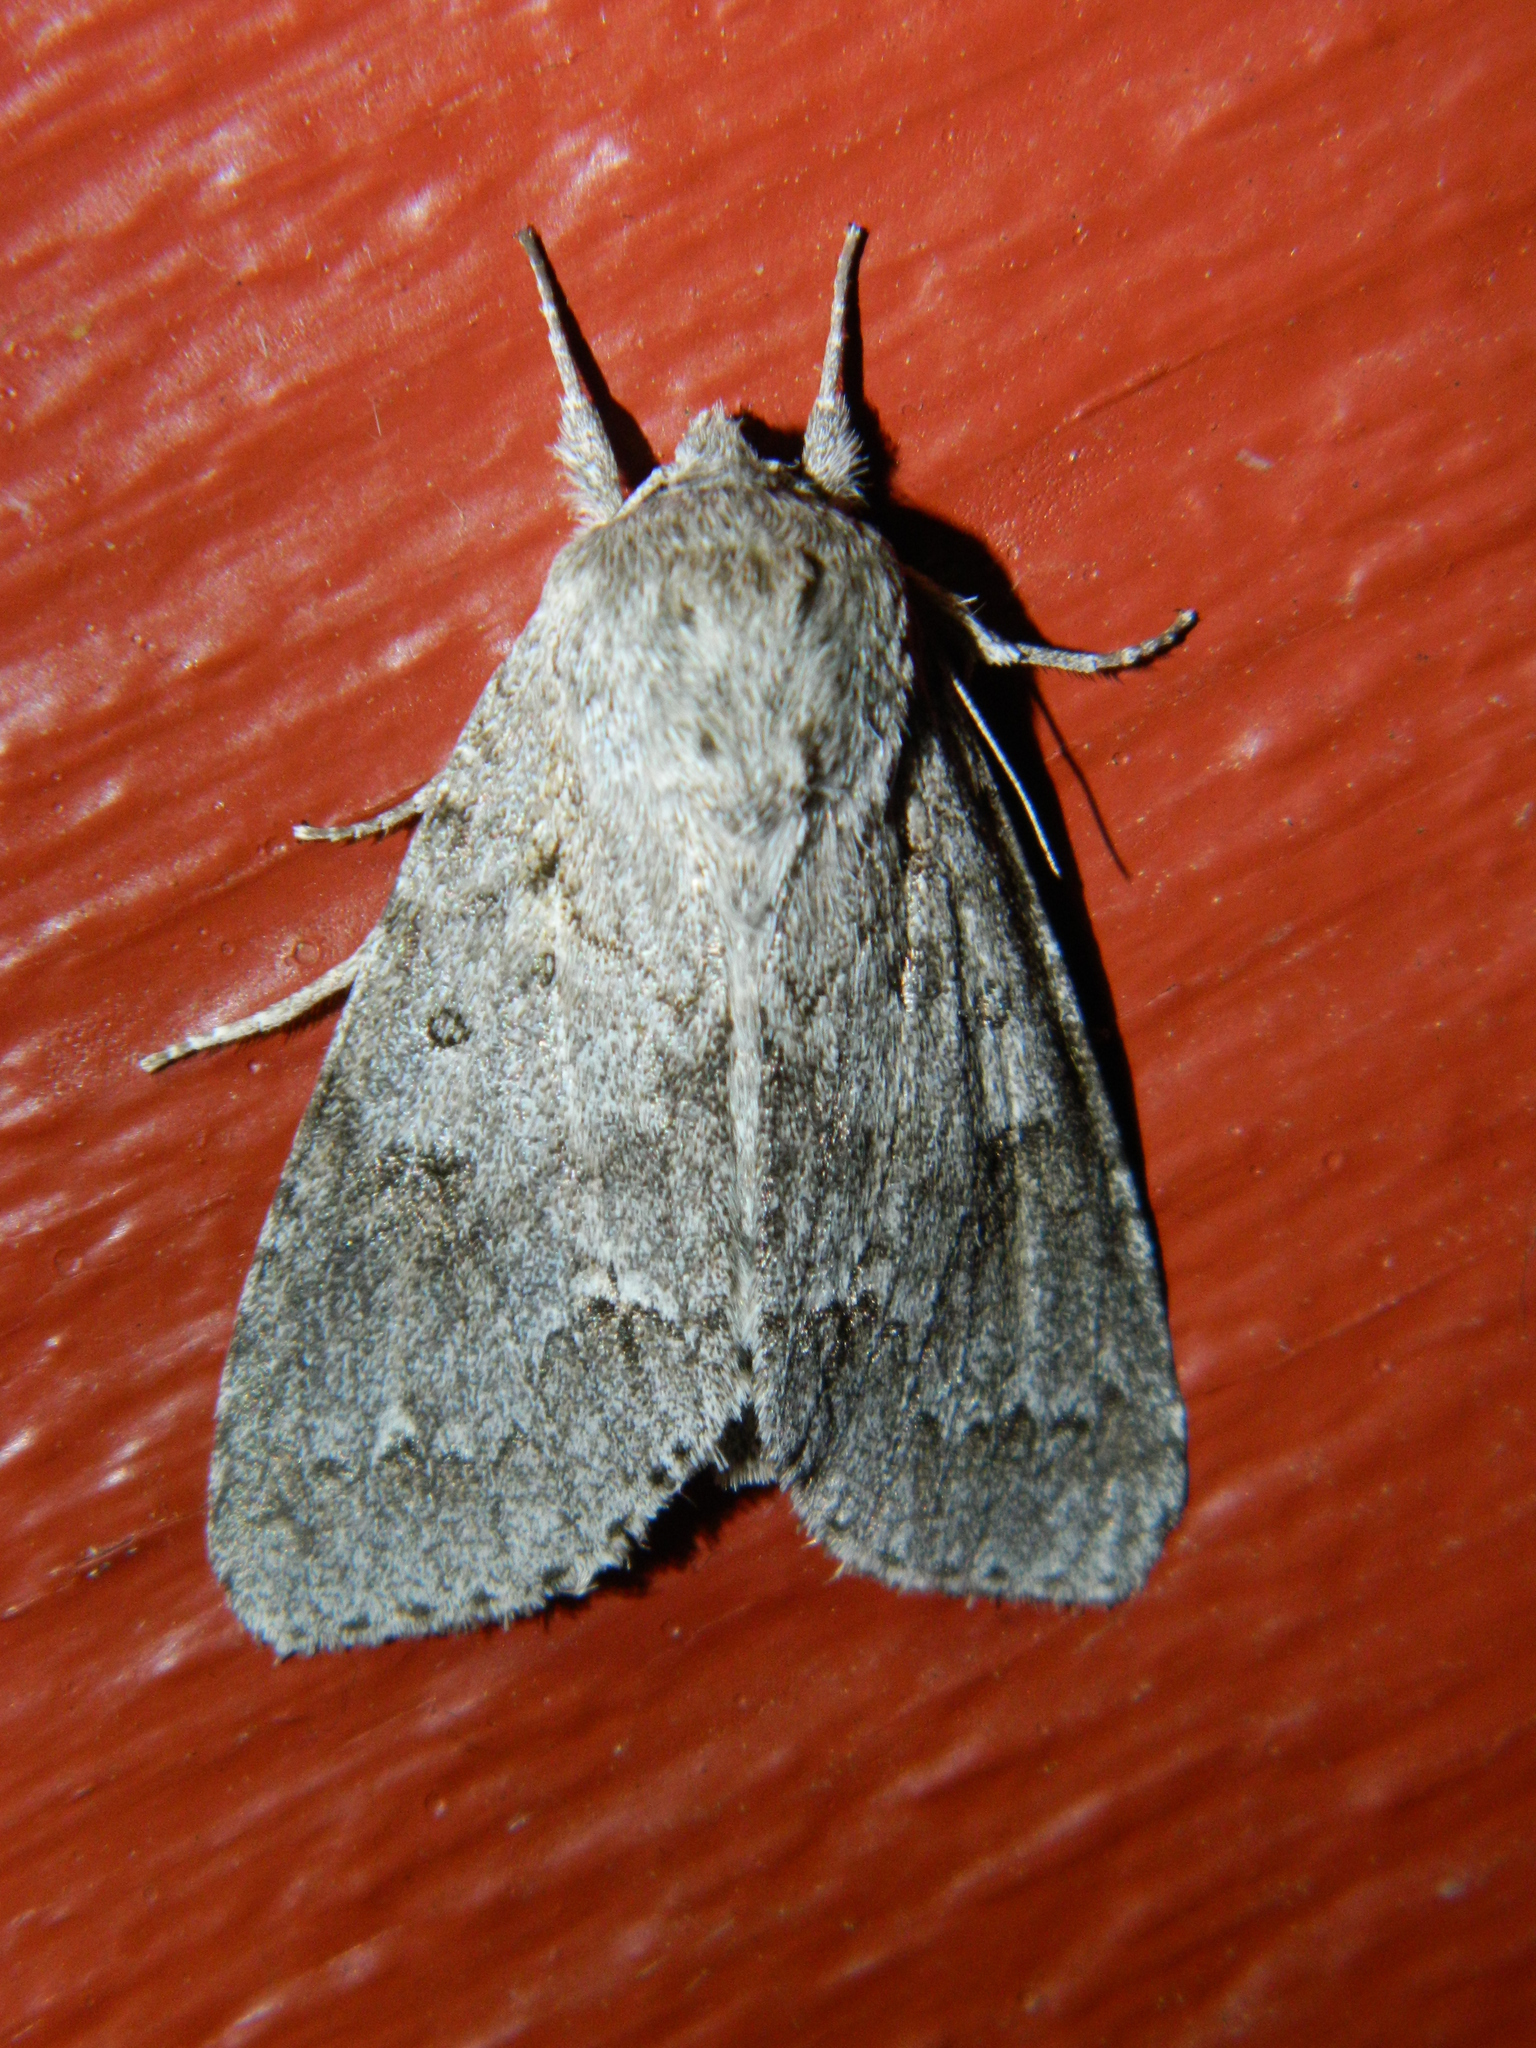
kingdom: Animalia
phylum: Arthropoda
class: Insecta
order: Lepidoptera
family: Noctuidae
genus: Acronicta
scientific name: Acronicta insita
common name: Large gray dagger
